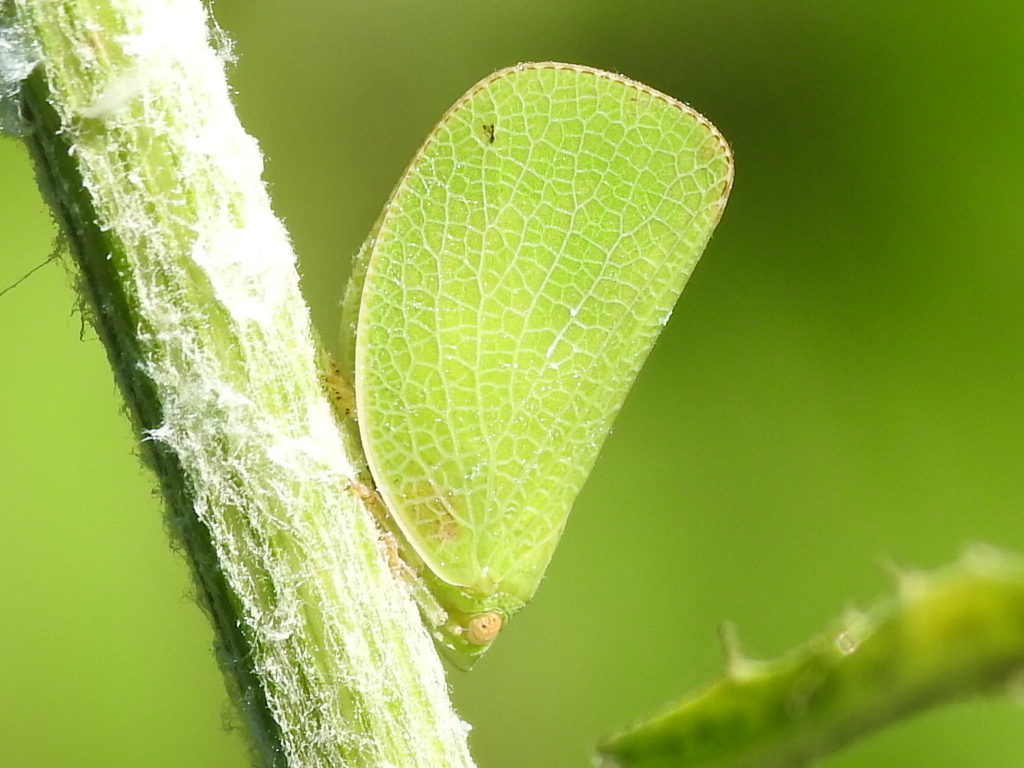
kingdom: Animalia
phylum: Arthropoda
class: Insecta
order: Hemiptera
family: Acanaloniidae
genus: Acanalonia
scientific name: Acanalonia conica
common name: Green cone-headed planthopper
